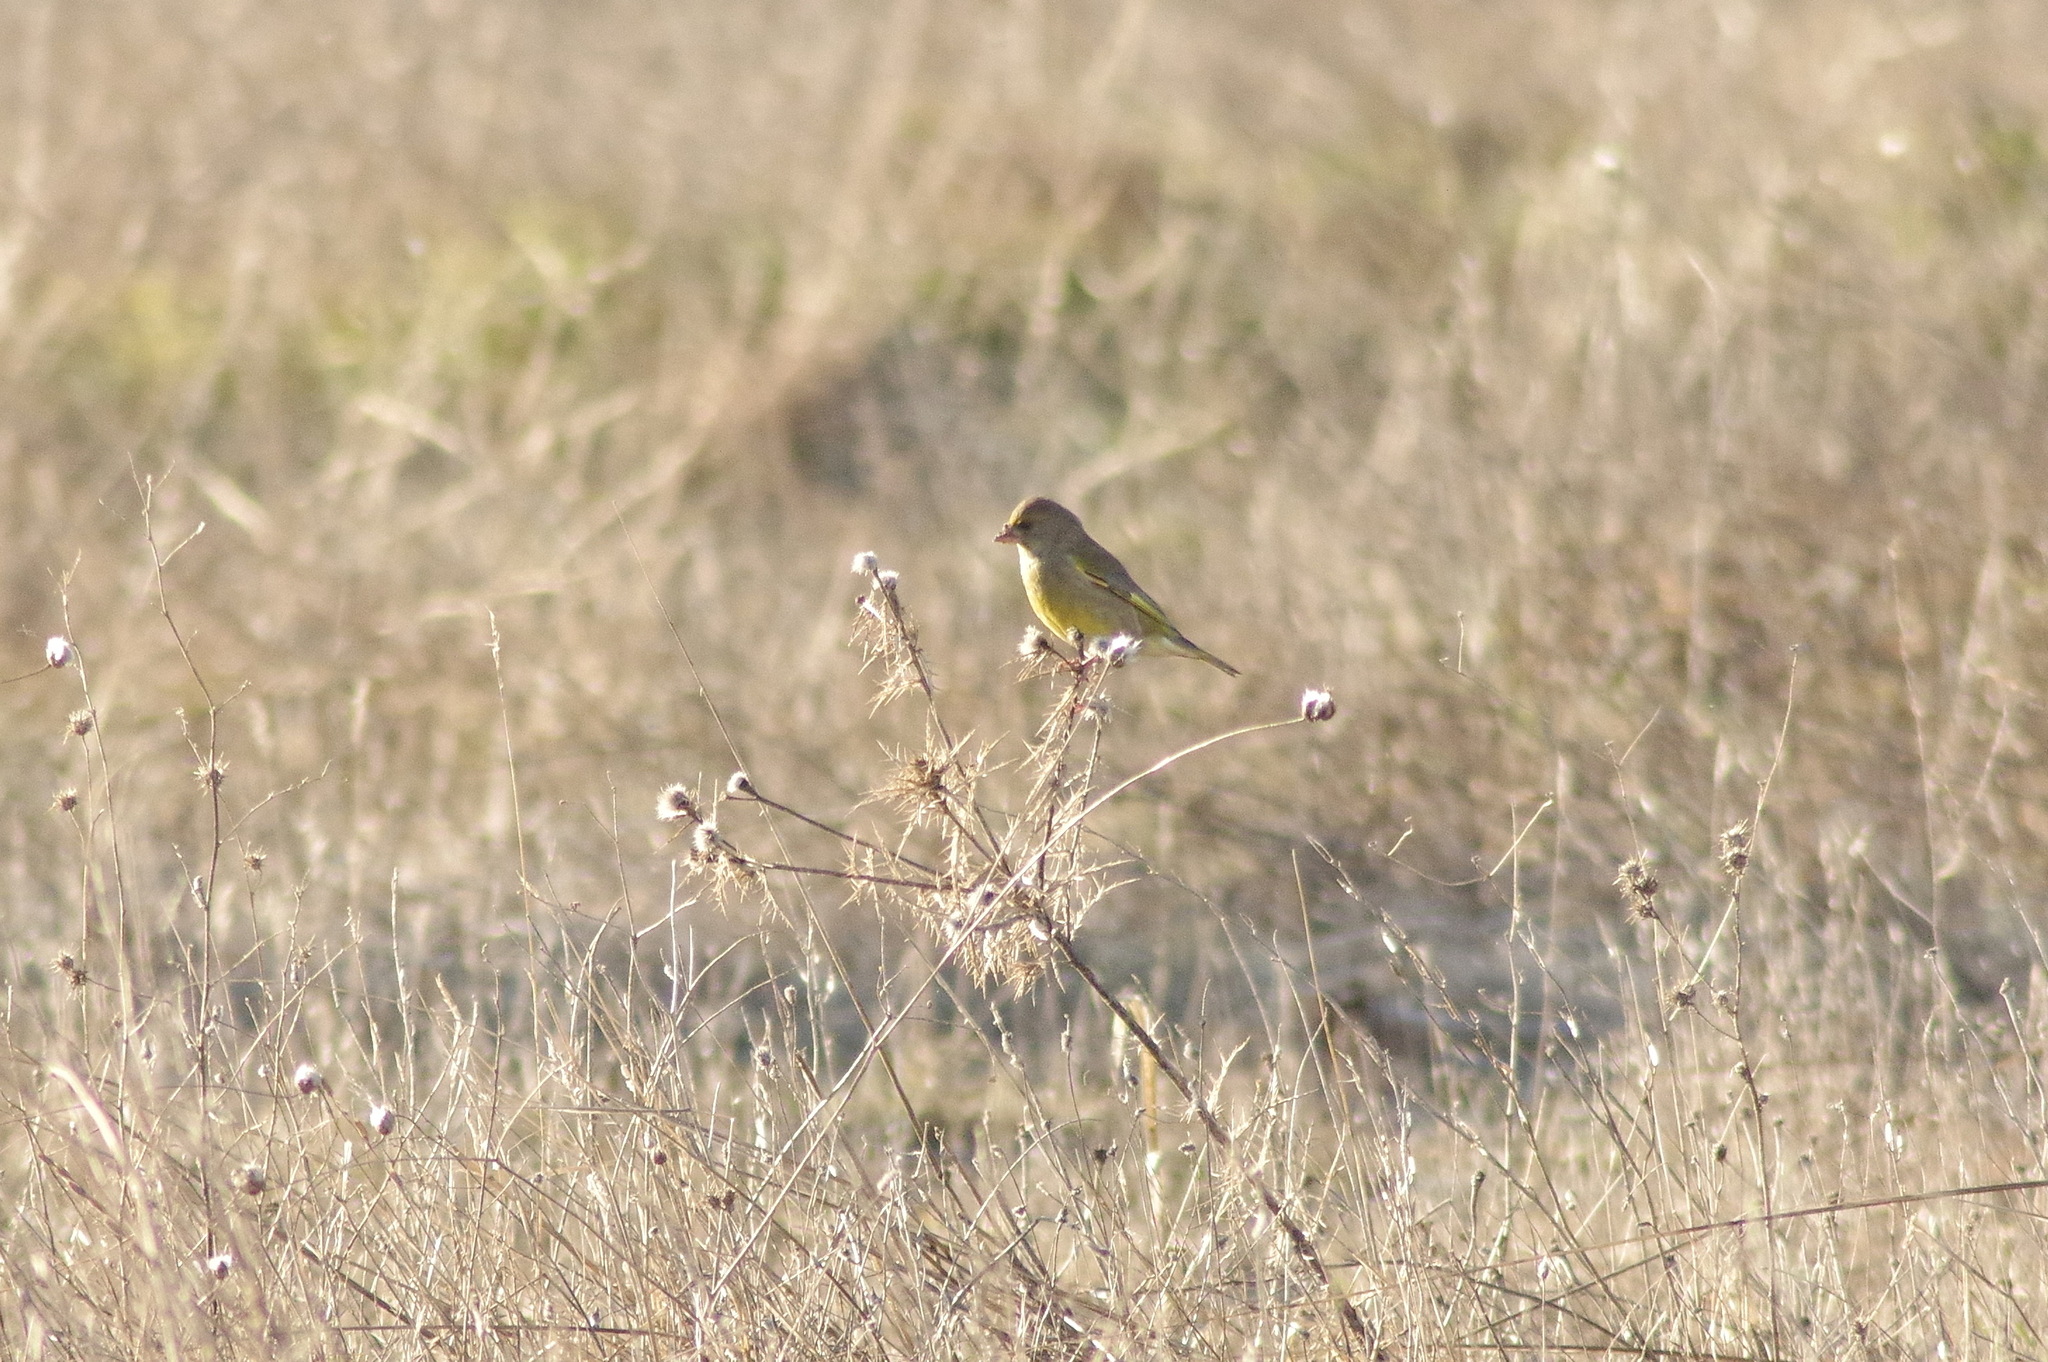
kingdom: Plantae
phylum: Tracheophyta
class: Liliopsida
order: Poales
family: Poaceae
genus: Chloris
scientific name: Chloris chloris
